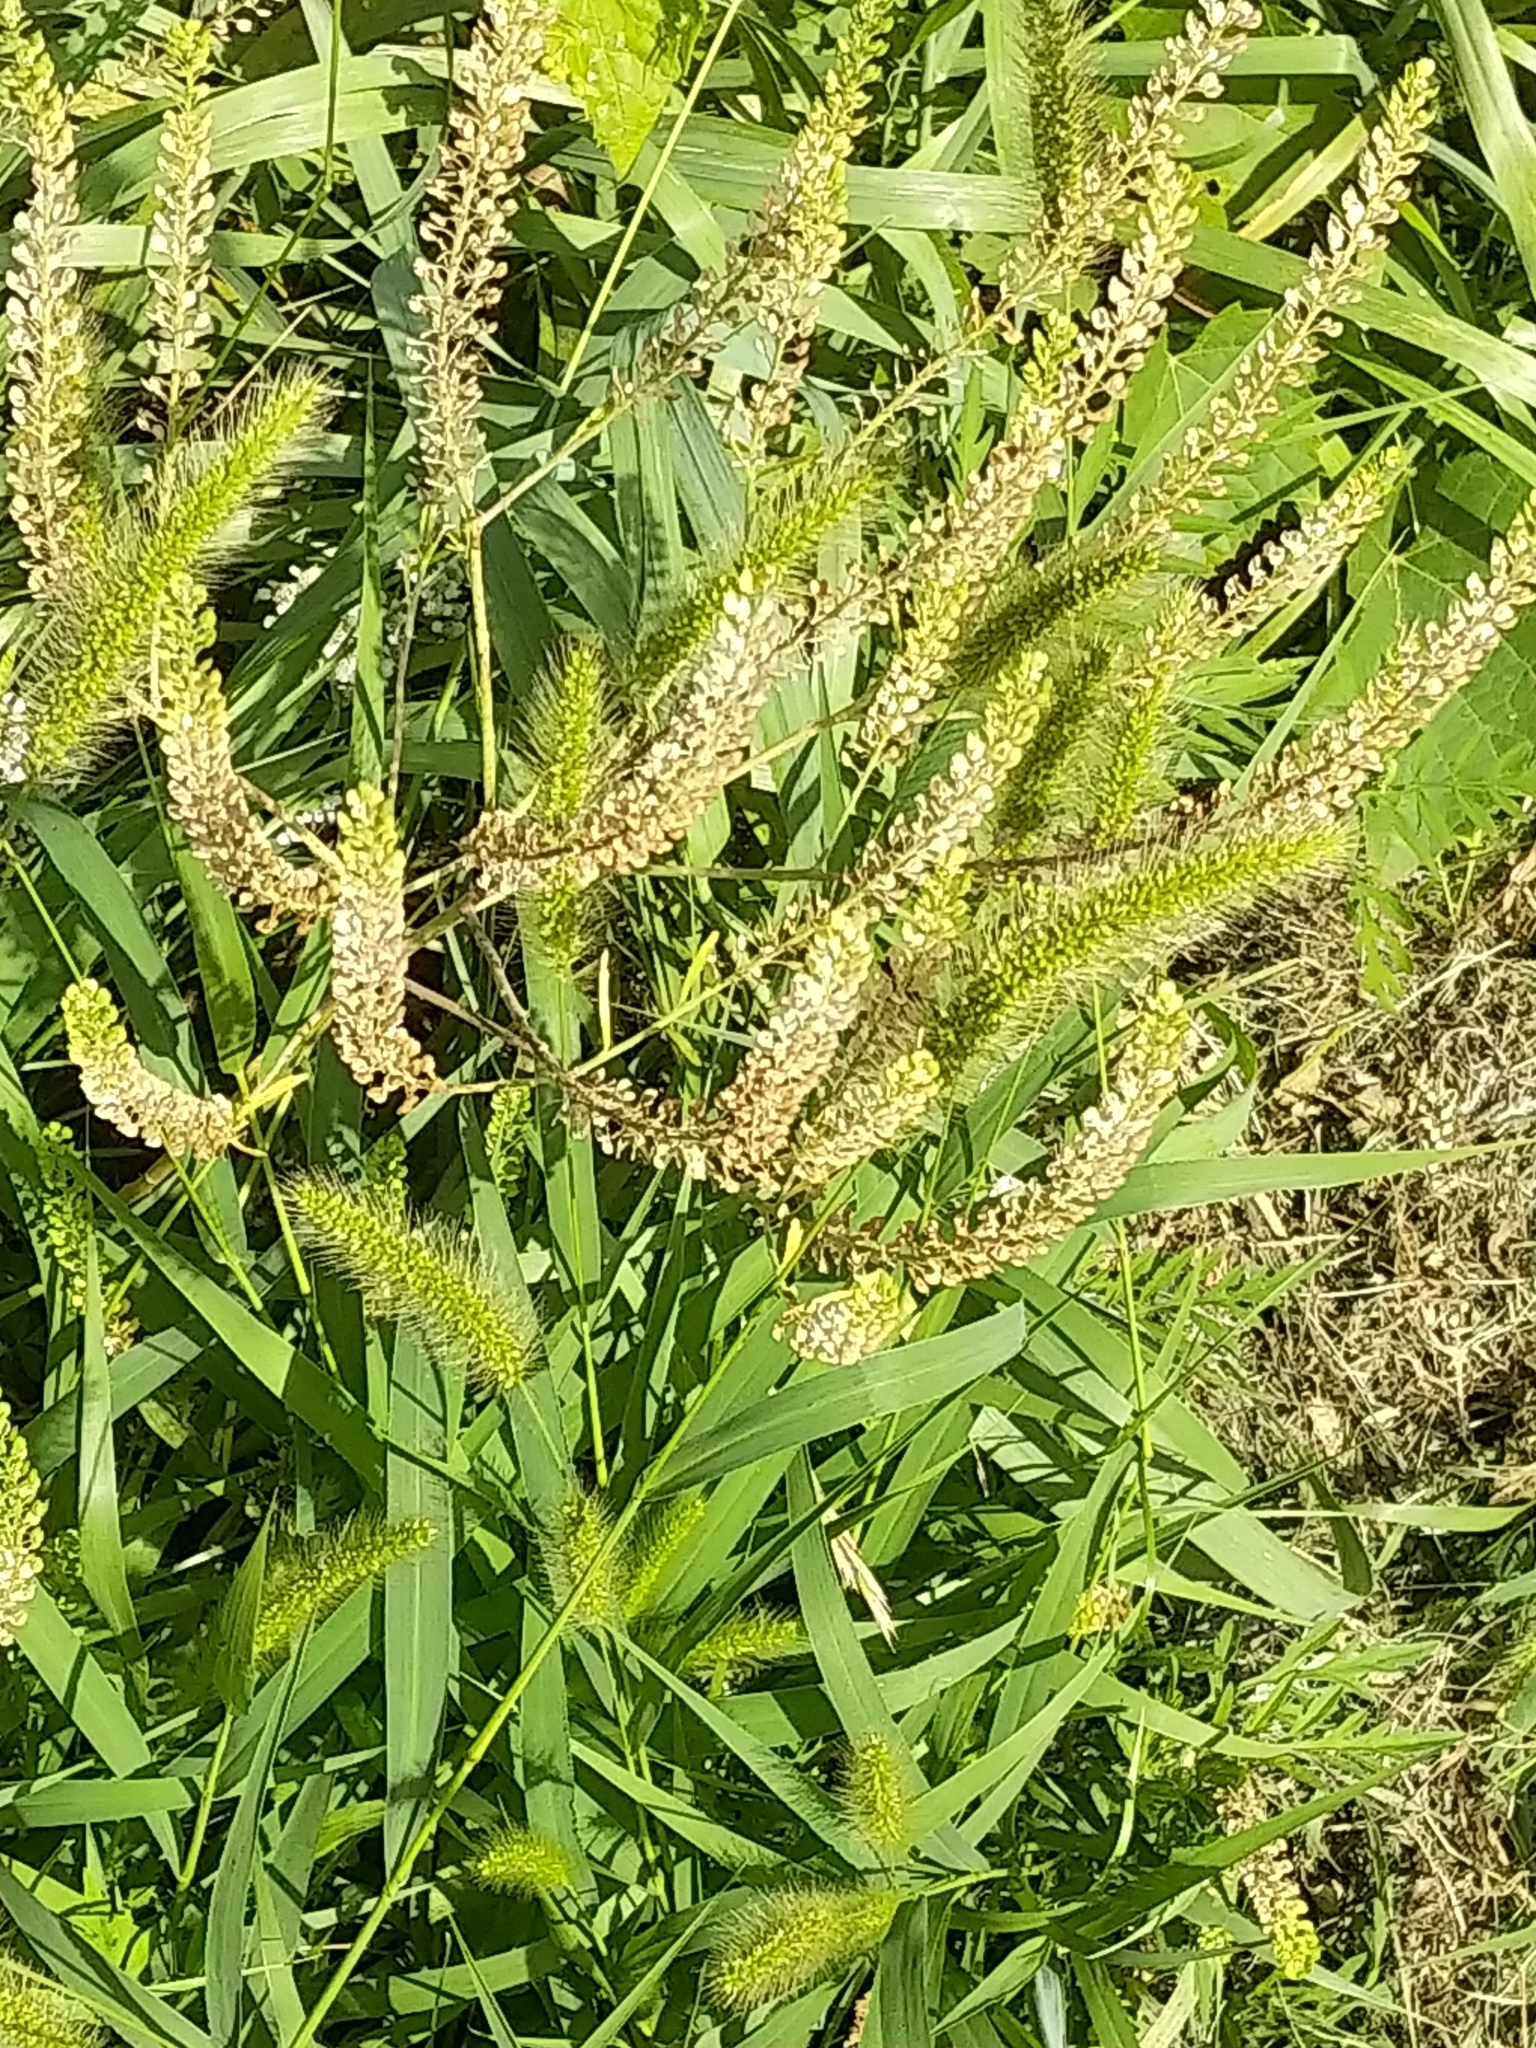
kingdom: Plantae
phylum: Tracheophyta
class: Liliopsida
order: Poales
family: Poaceae
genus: Setaria
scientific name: Setaria viridis
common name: Green bristlegrass
